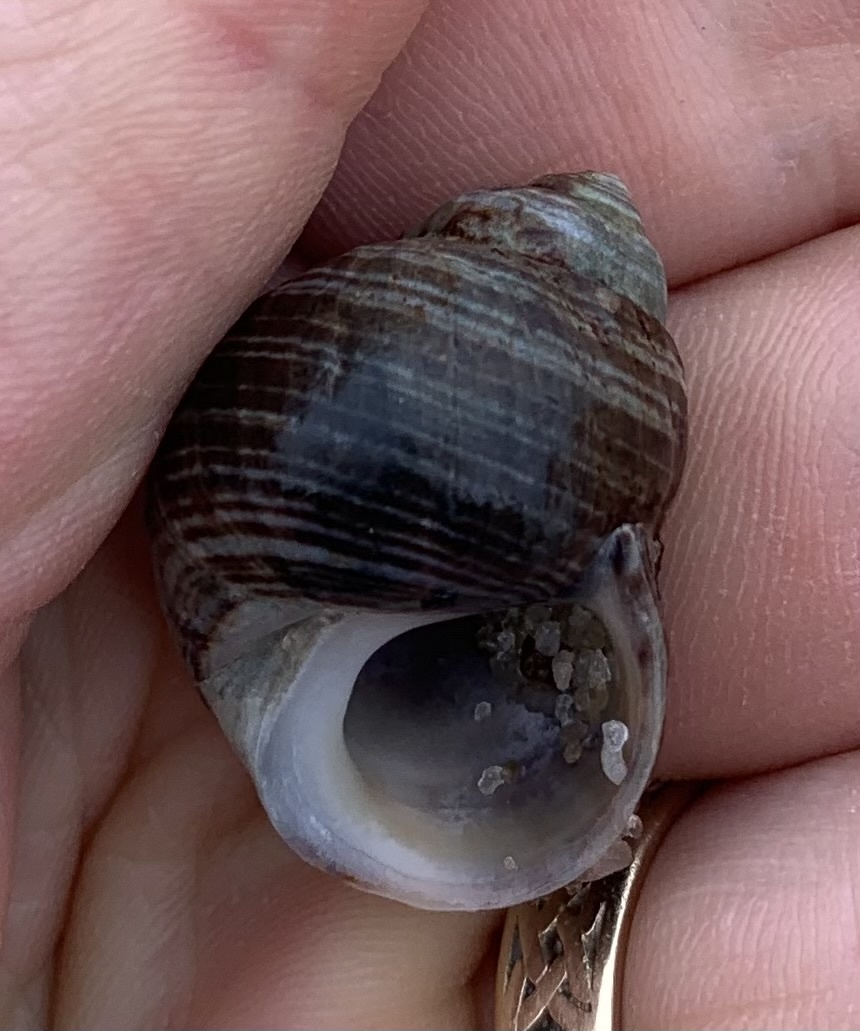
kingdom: Animalia
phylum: Mollusca
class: Gastropoda
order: Littorinimorpha
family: Littorinidae
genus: Littorina
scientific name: Littorina littorea
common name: Common periwinkle
